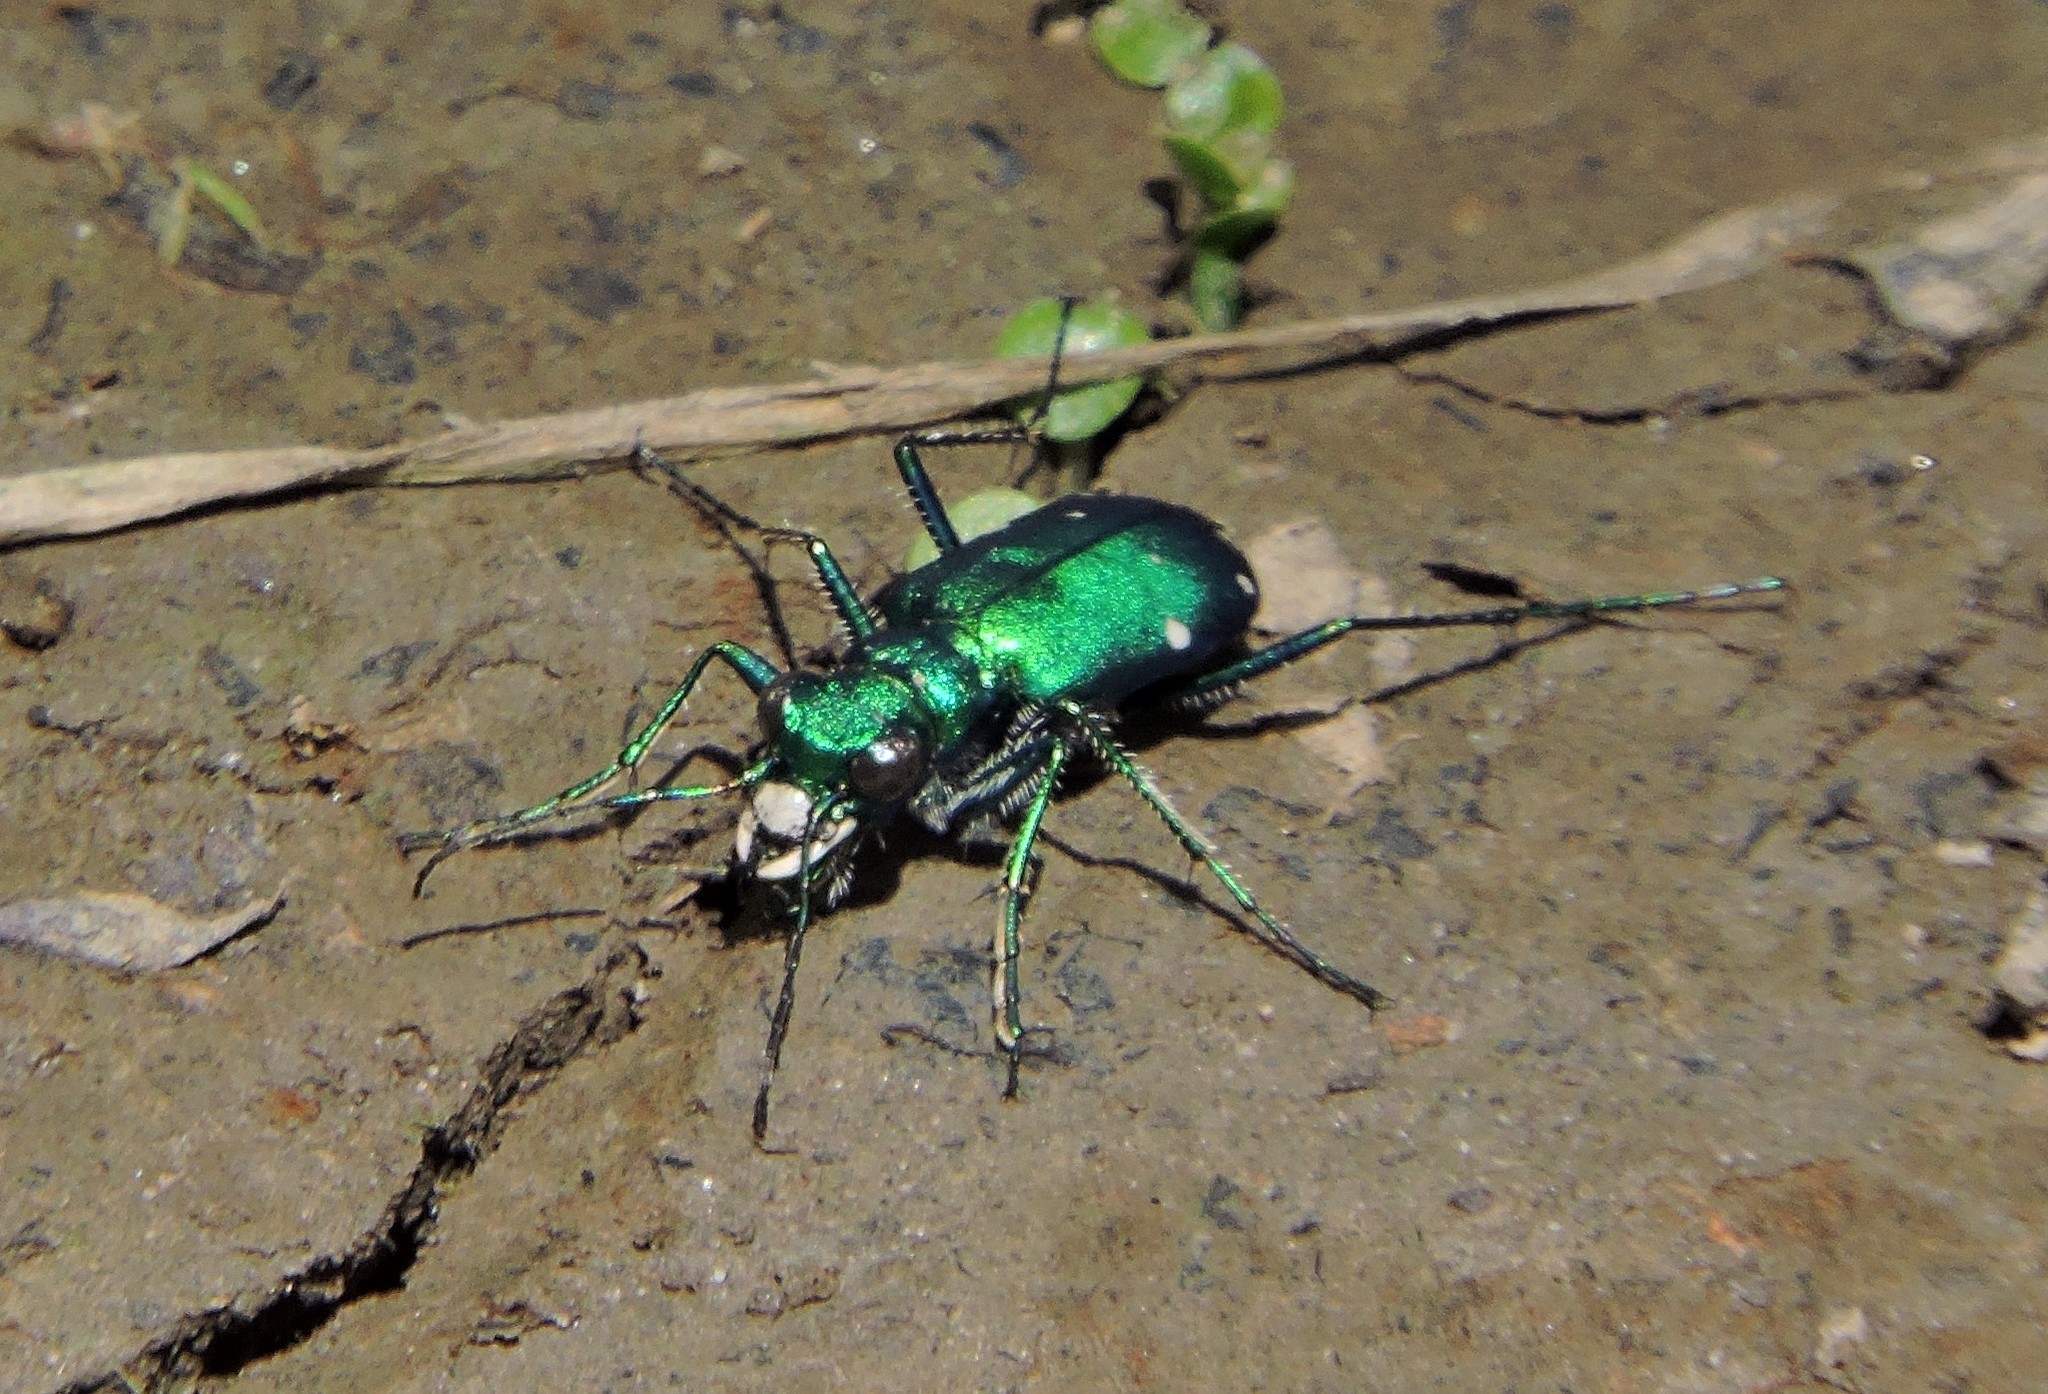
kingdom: Animalia
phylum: Arthropoda
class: Insecta
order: Coleoptera
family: Carabidae
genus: Cicindela
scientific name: Cicindela sexguttata
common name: Six-spotted tiger beetle
